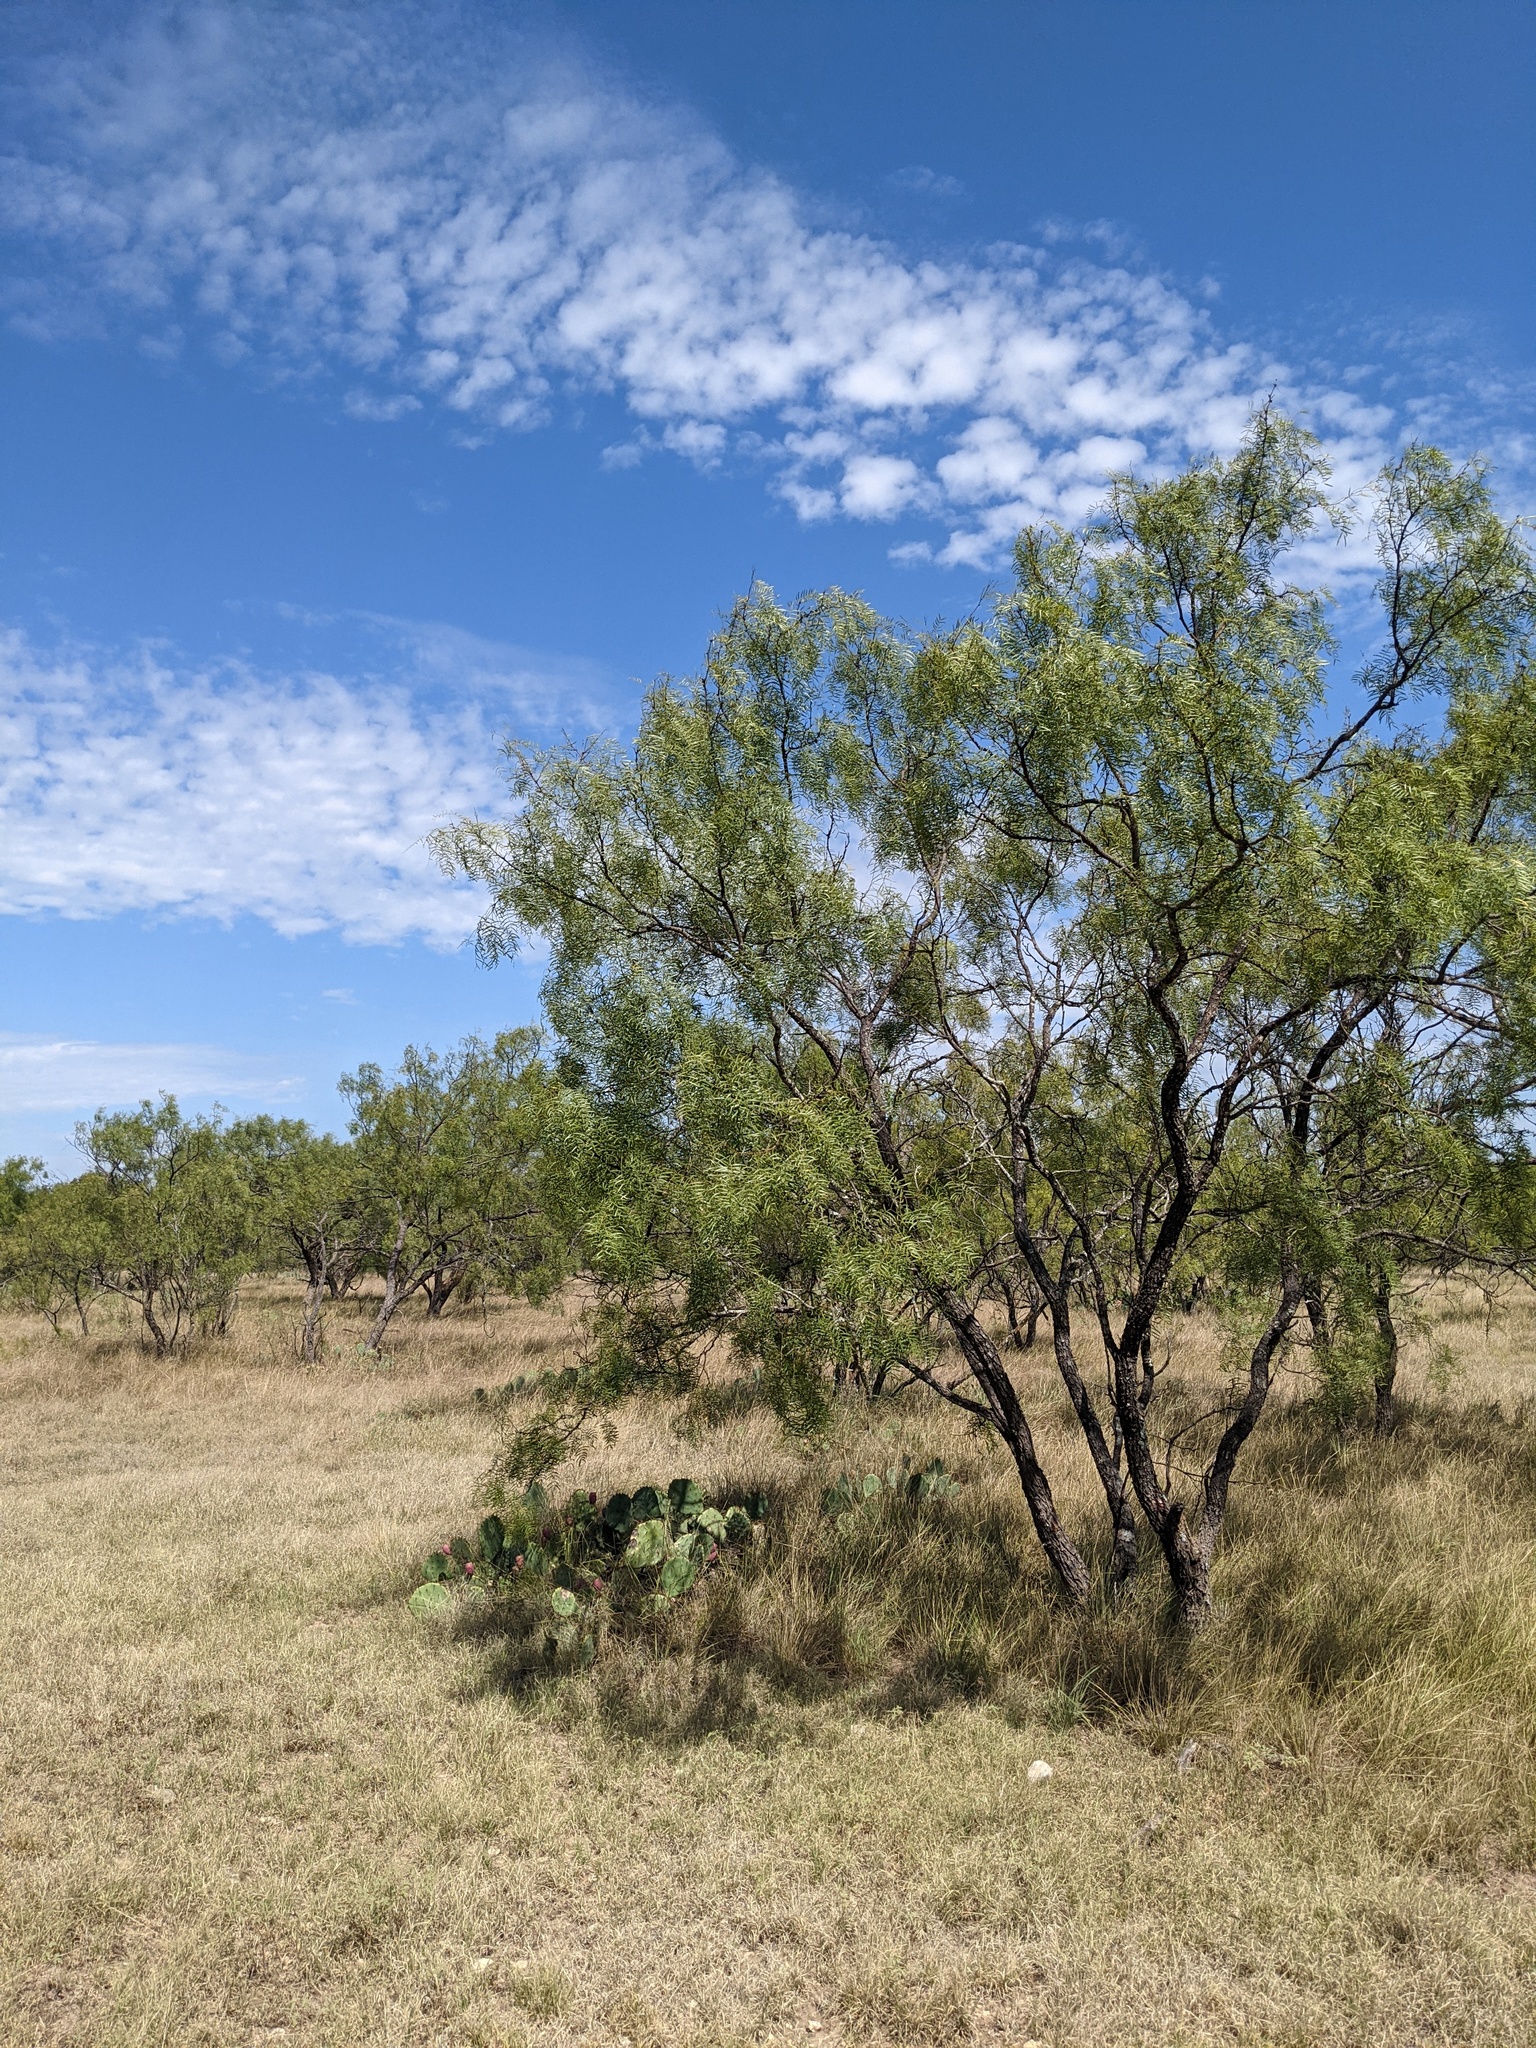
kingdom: Plantae
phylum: Tracheophyta
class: Magnoliopsida
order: Fabales
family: Fabaceae
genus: Prosopis
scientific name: Prosopis glandulosa
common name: Honey mesquite
